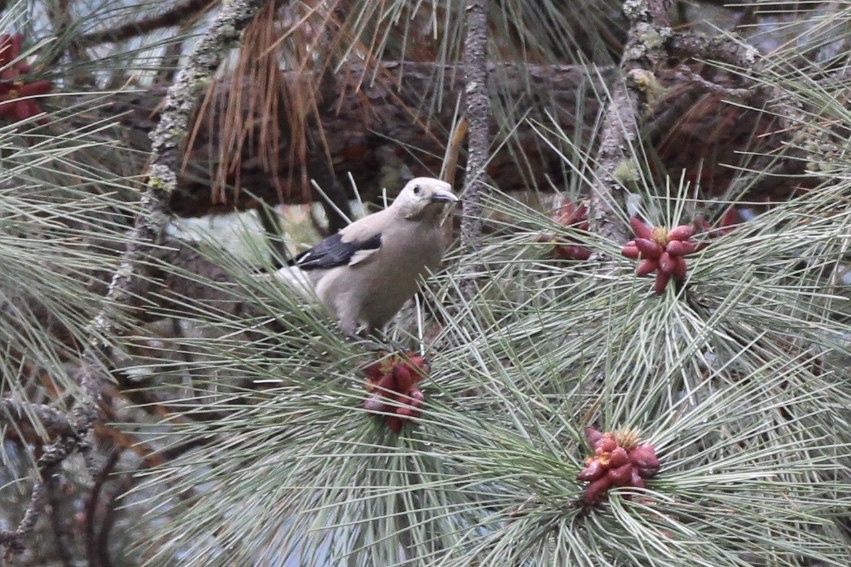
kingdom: Animalia
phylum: Chordata
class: Aves
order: Passeriformes
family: Corvidae
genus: Nucifraga
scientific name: Nucifraga columbiana
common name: Clark's nutcracker
